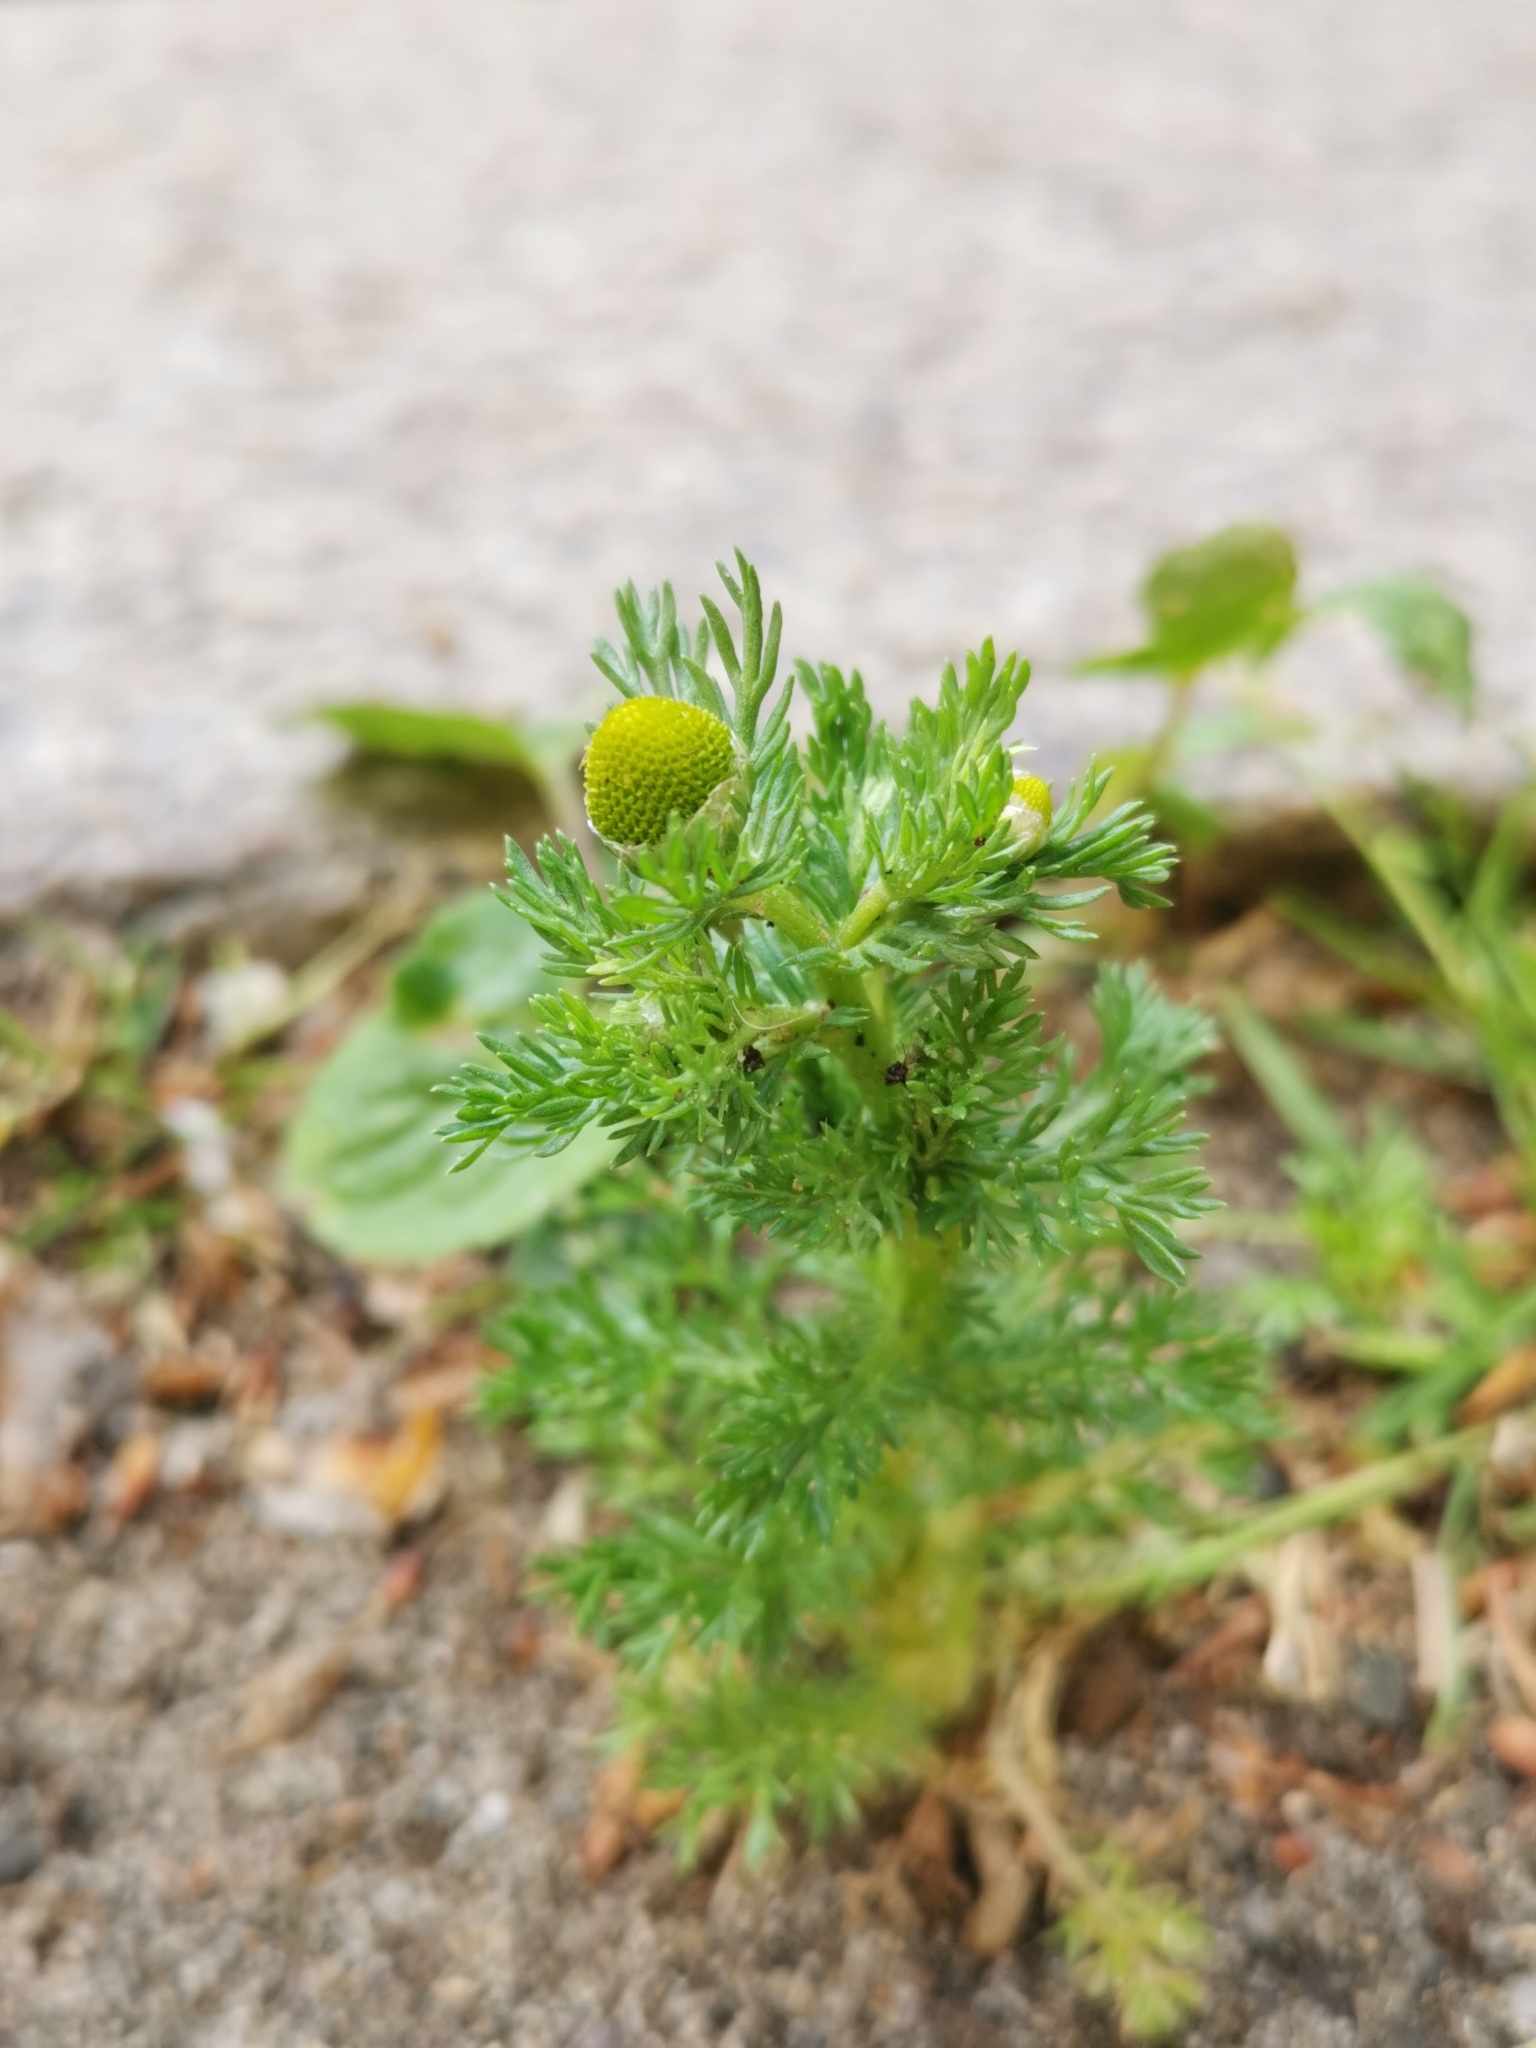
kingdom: Plantae
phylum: Tracheophyta
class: Magnoliopsida
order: Asterales
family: Asteraceae
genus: Matricaria
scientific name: Matricaria discoidea
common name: Disc mayweed
